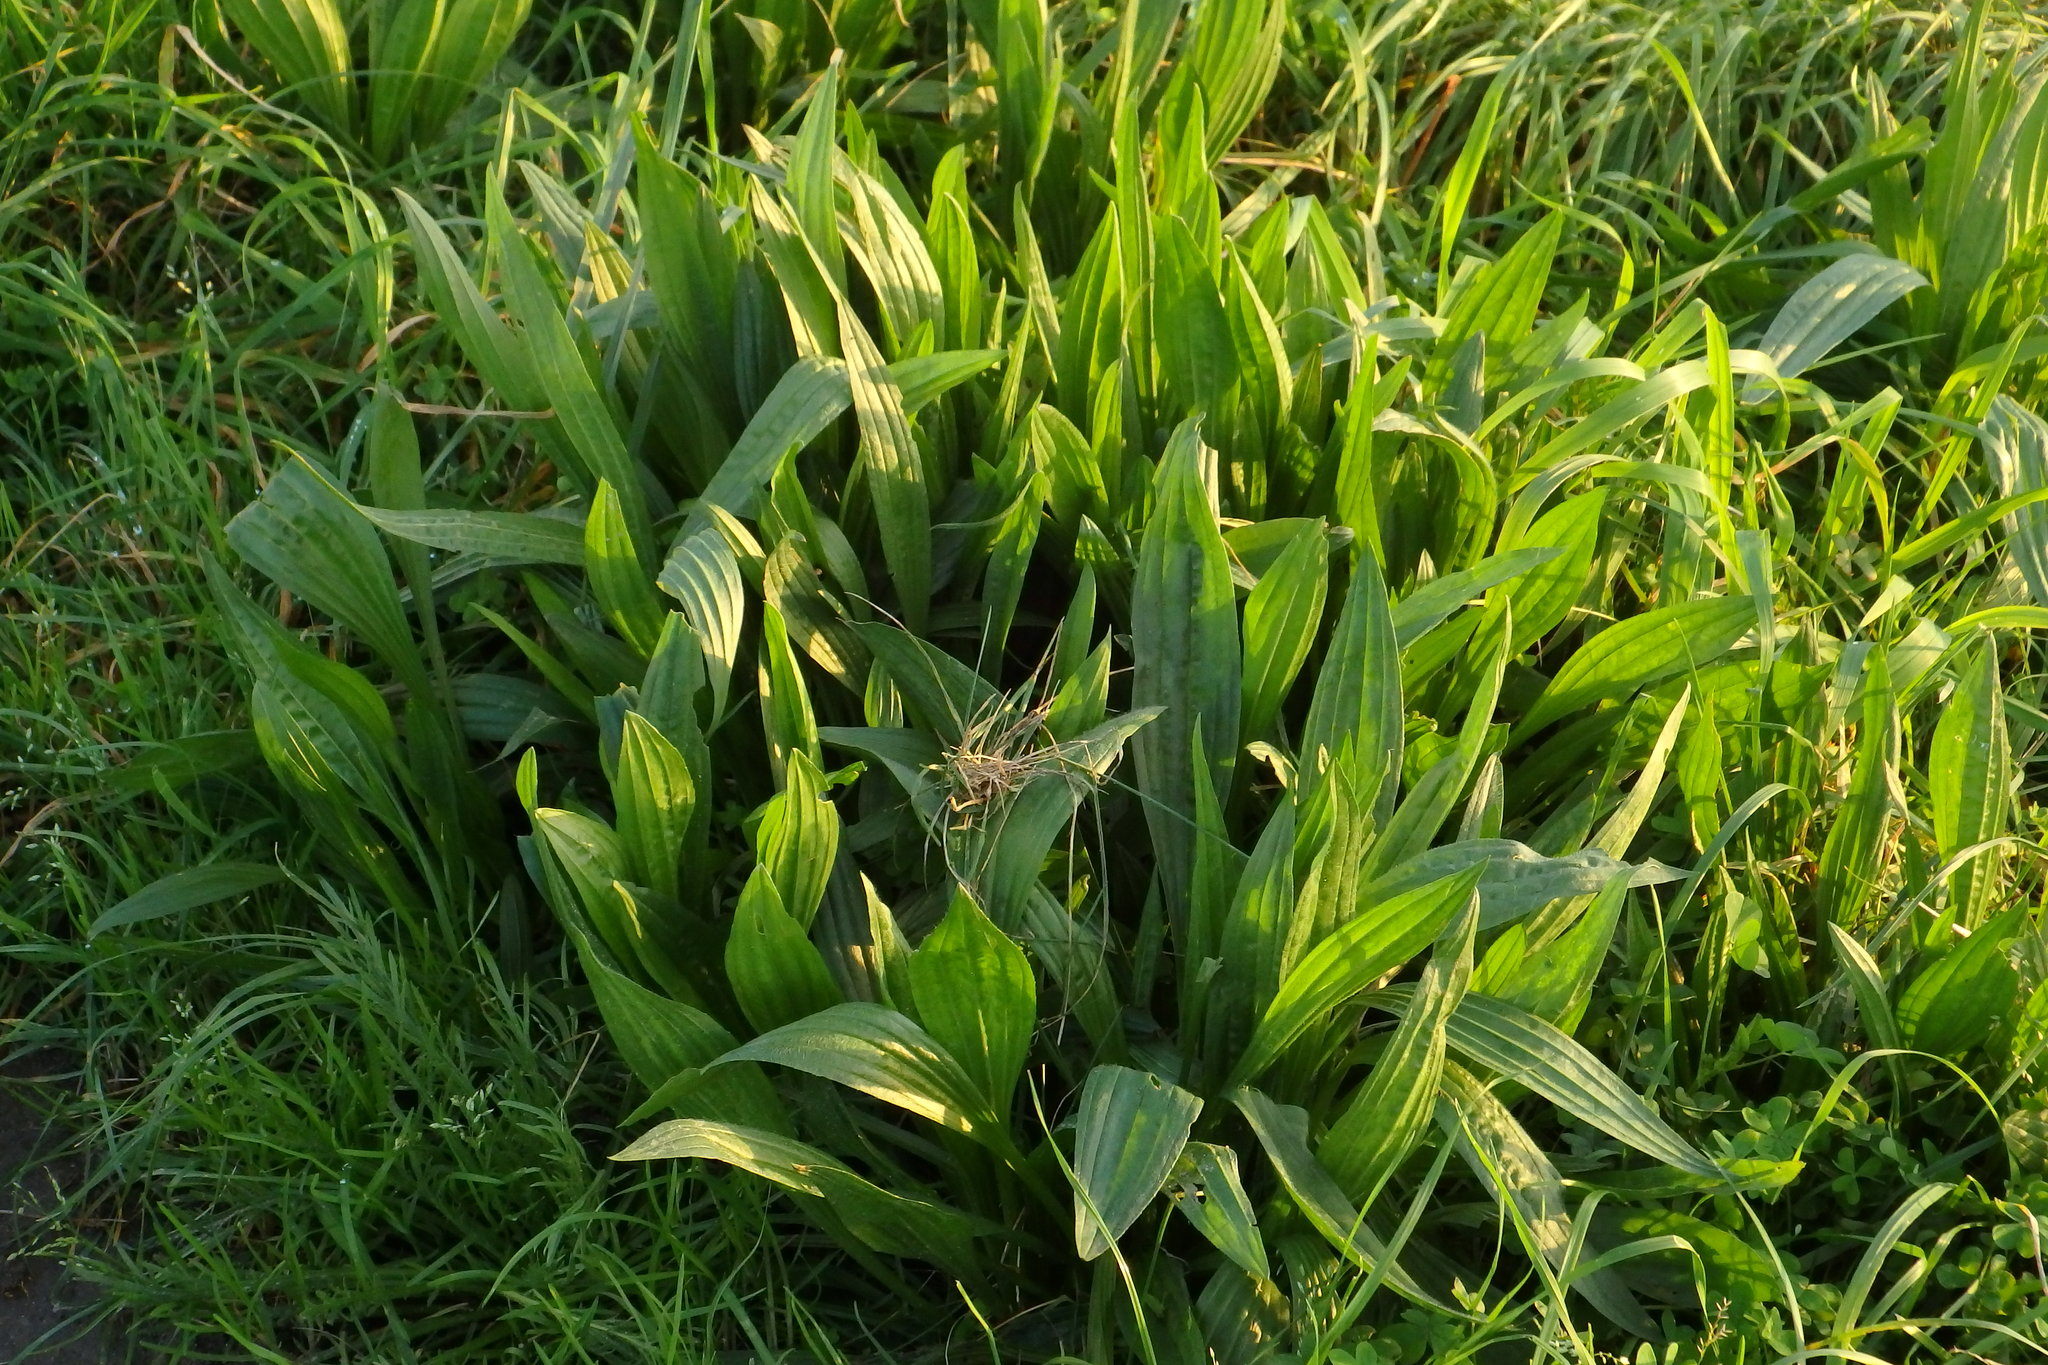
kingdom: Plantae
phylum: Tracheophyta
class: Magnoliopsida
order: Lamiales
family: Plantaginaceae
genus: Plantago
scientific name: Plantago lanceolata
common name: Ribwort plantain
